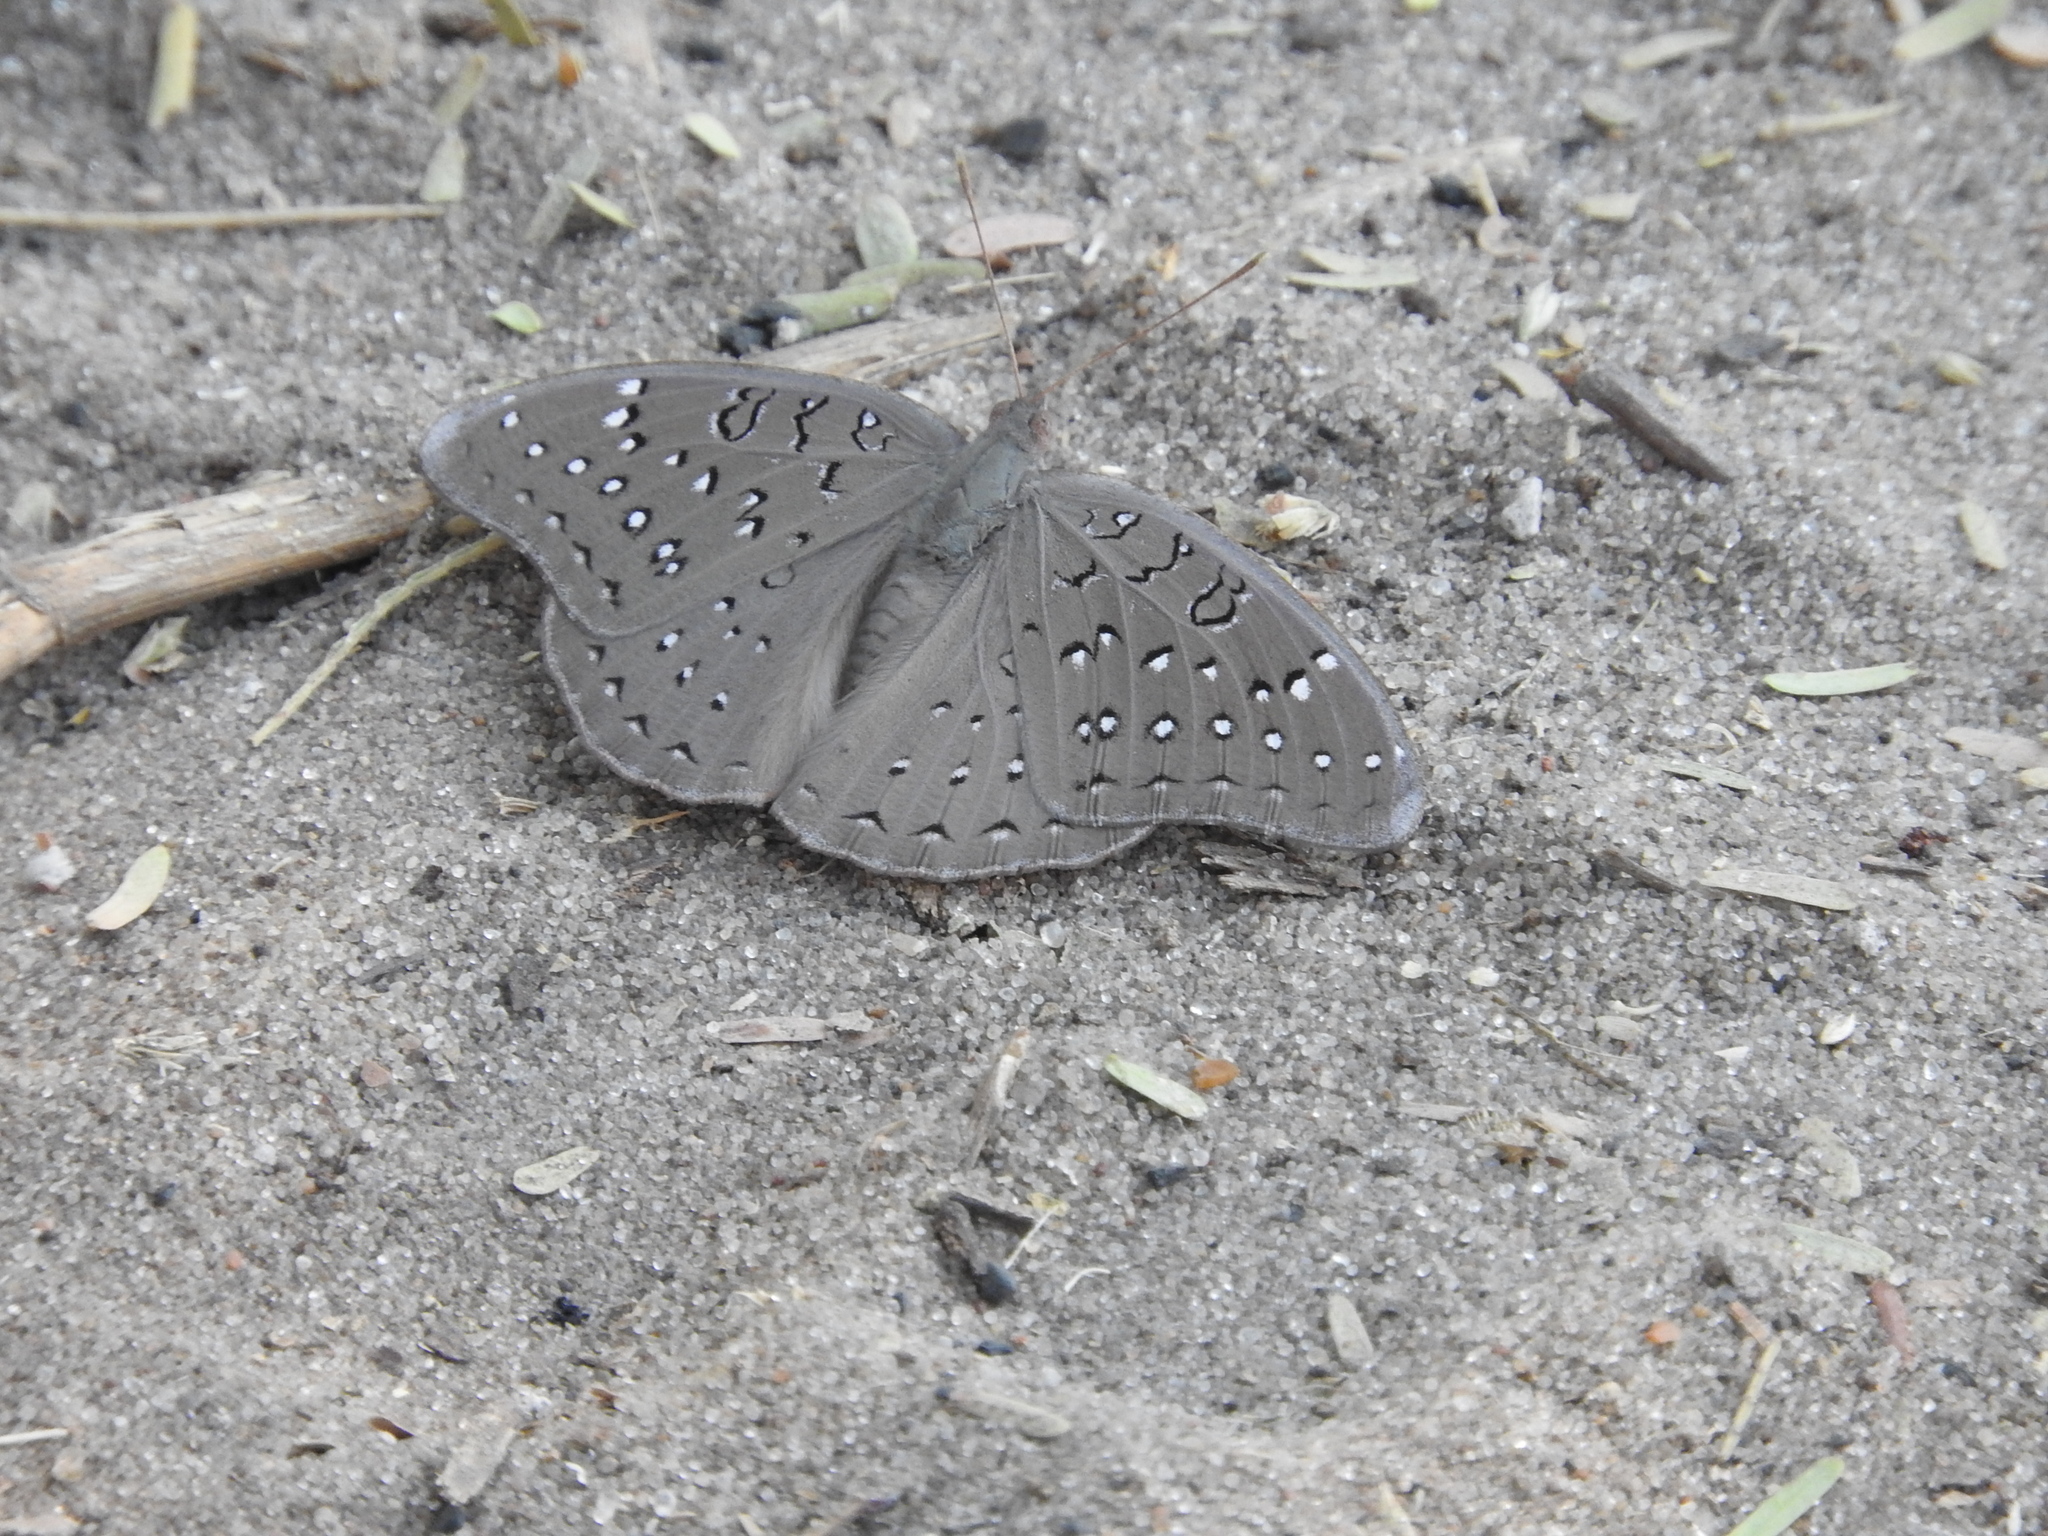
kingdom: Animalia
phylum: Arthropoda
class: Insecta
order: Lepidoptera
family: Nymphalidae
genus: Hamanumida
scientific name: Hamanumida daedalus
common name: Guinea-fowl butterfly
